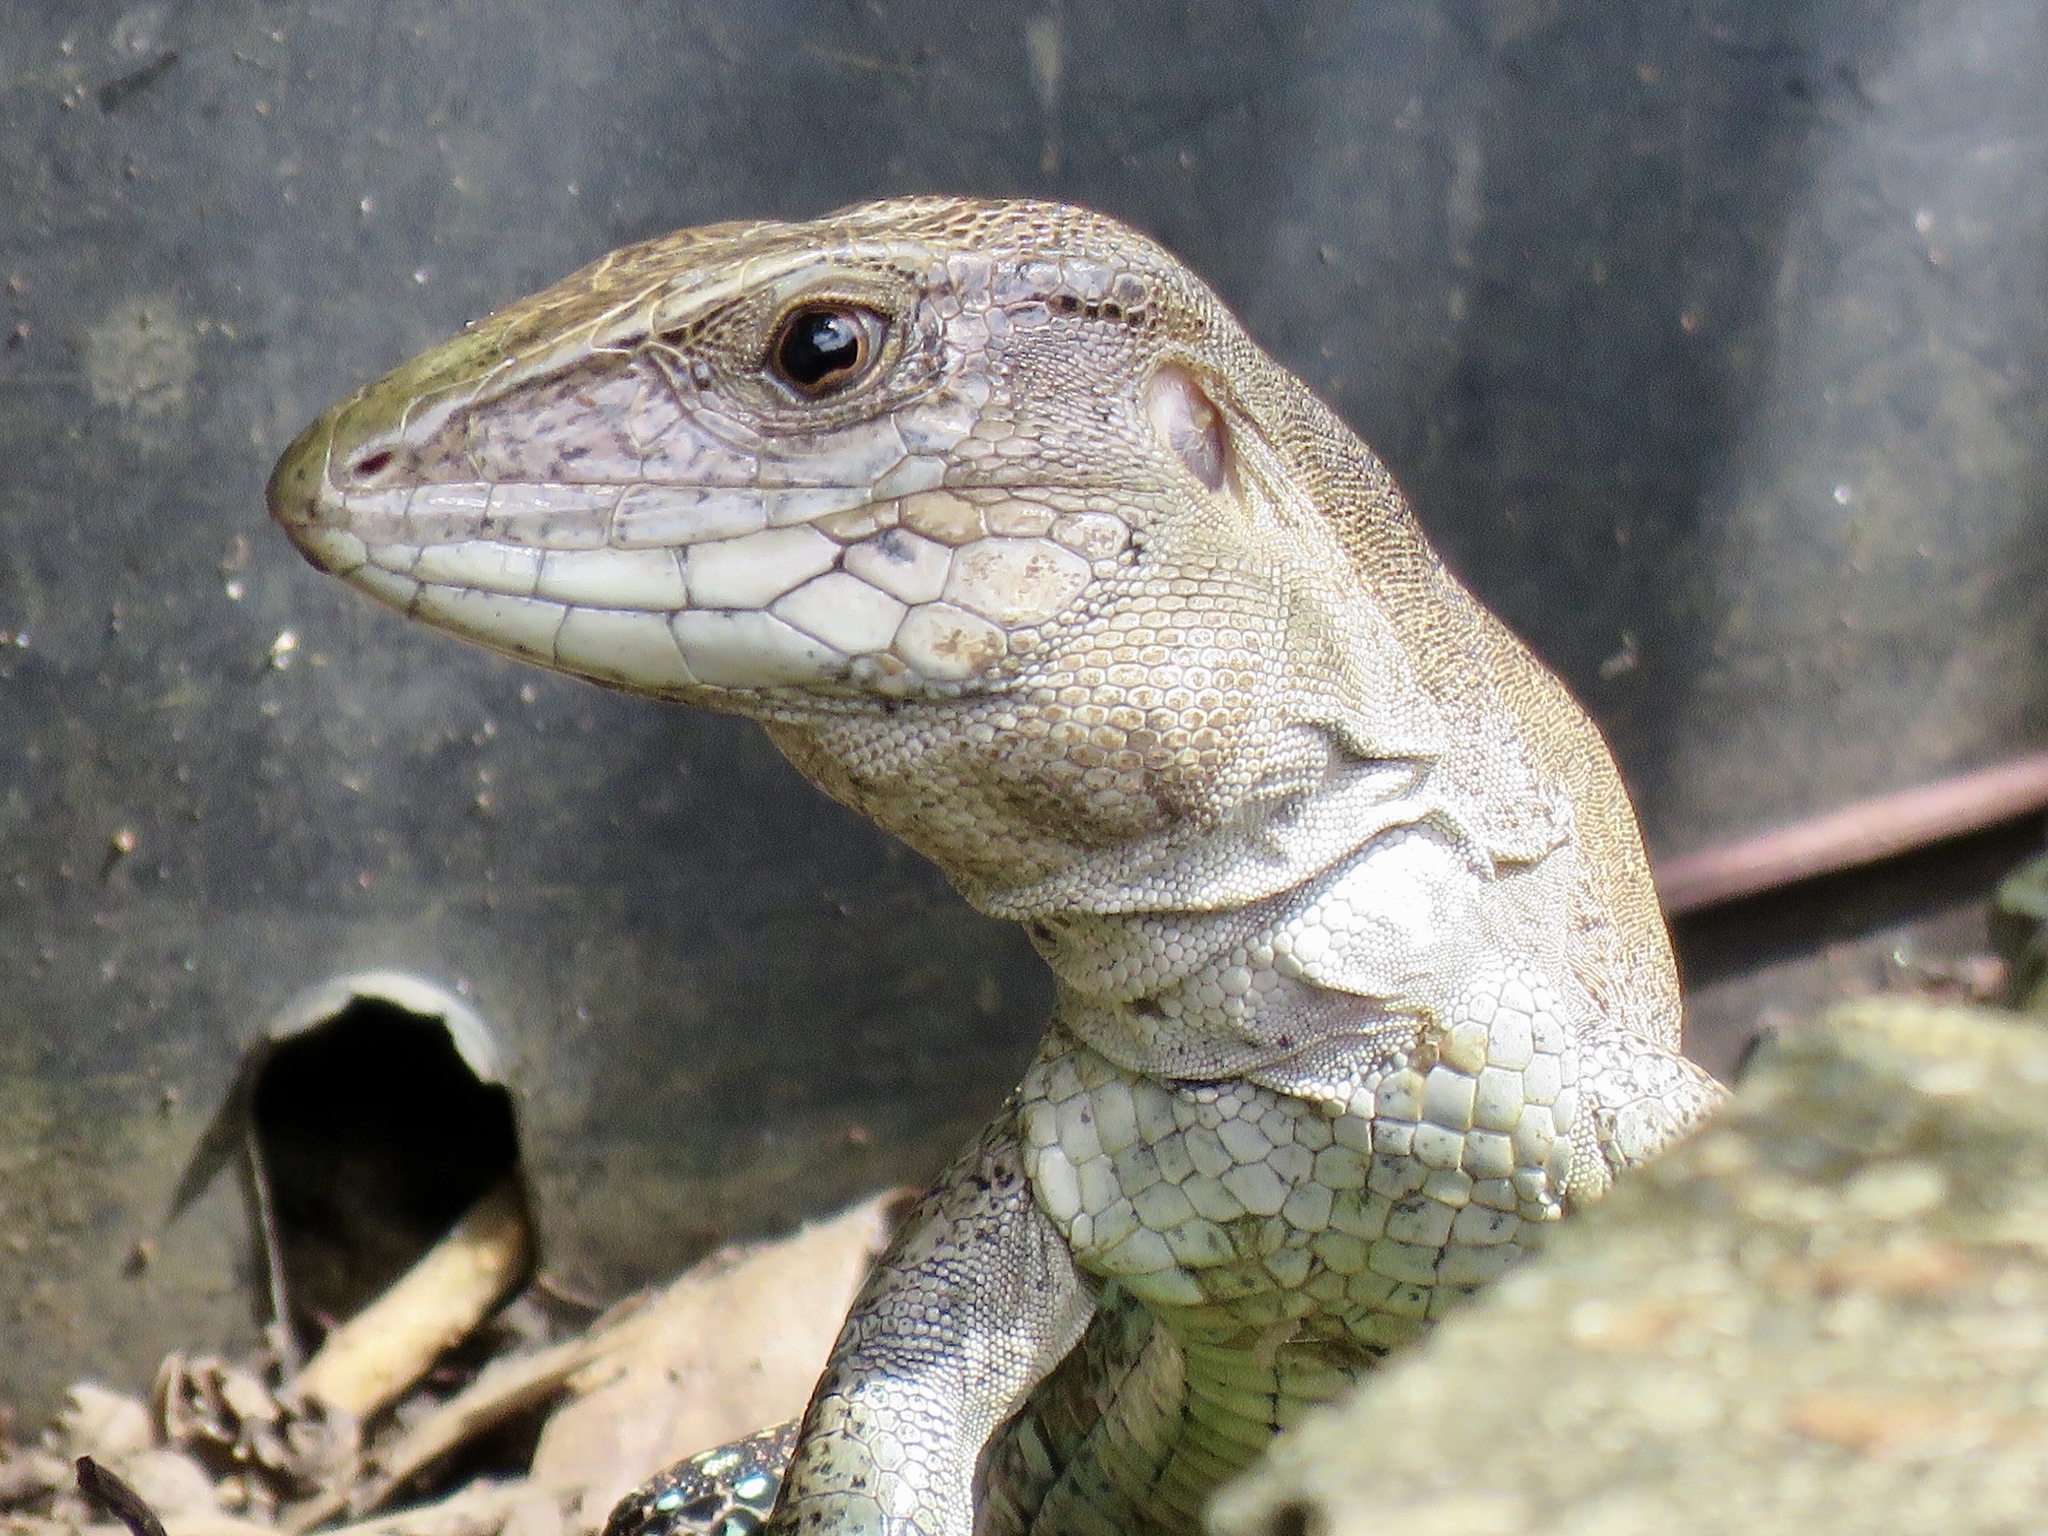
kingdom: Animalia
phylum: Chordata
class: Squamata
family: Teiidae
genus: Ameiva
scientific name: Ameiva praesignis
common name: Giant ameiva
